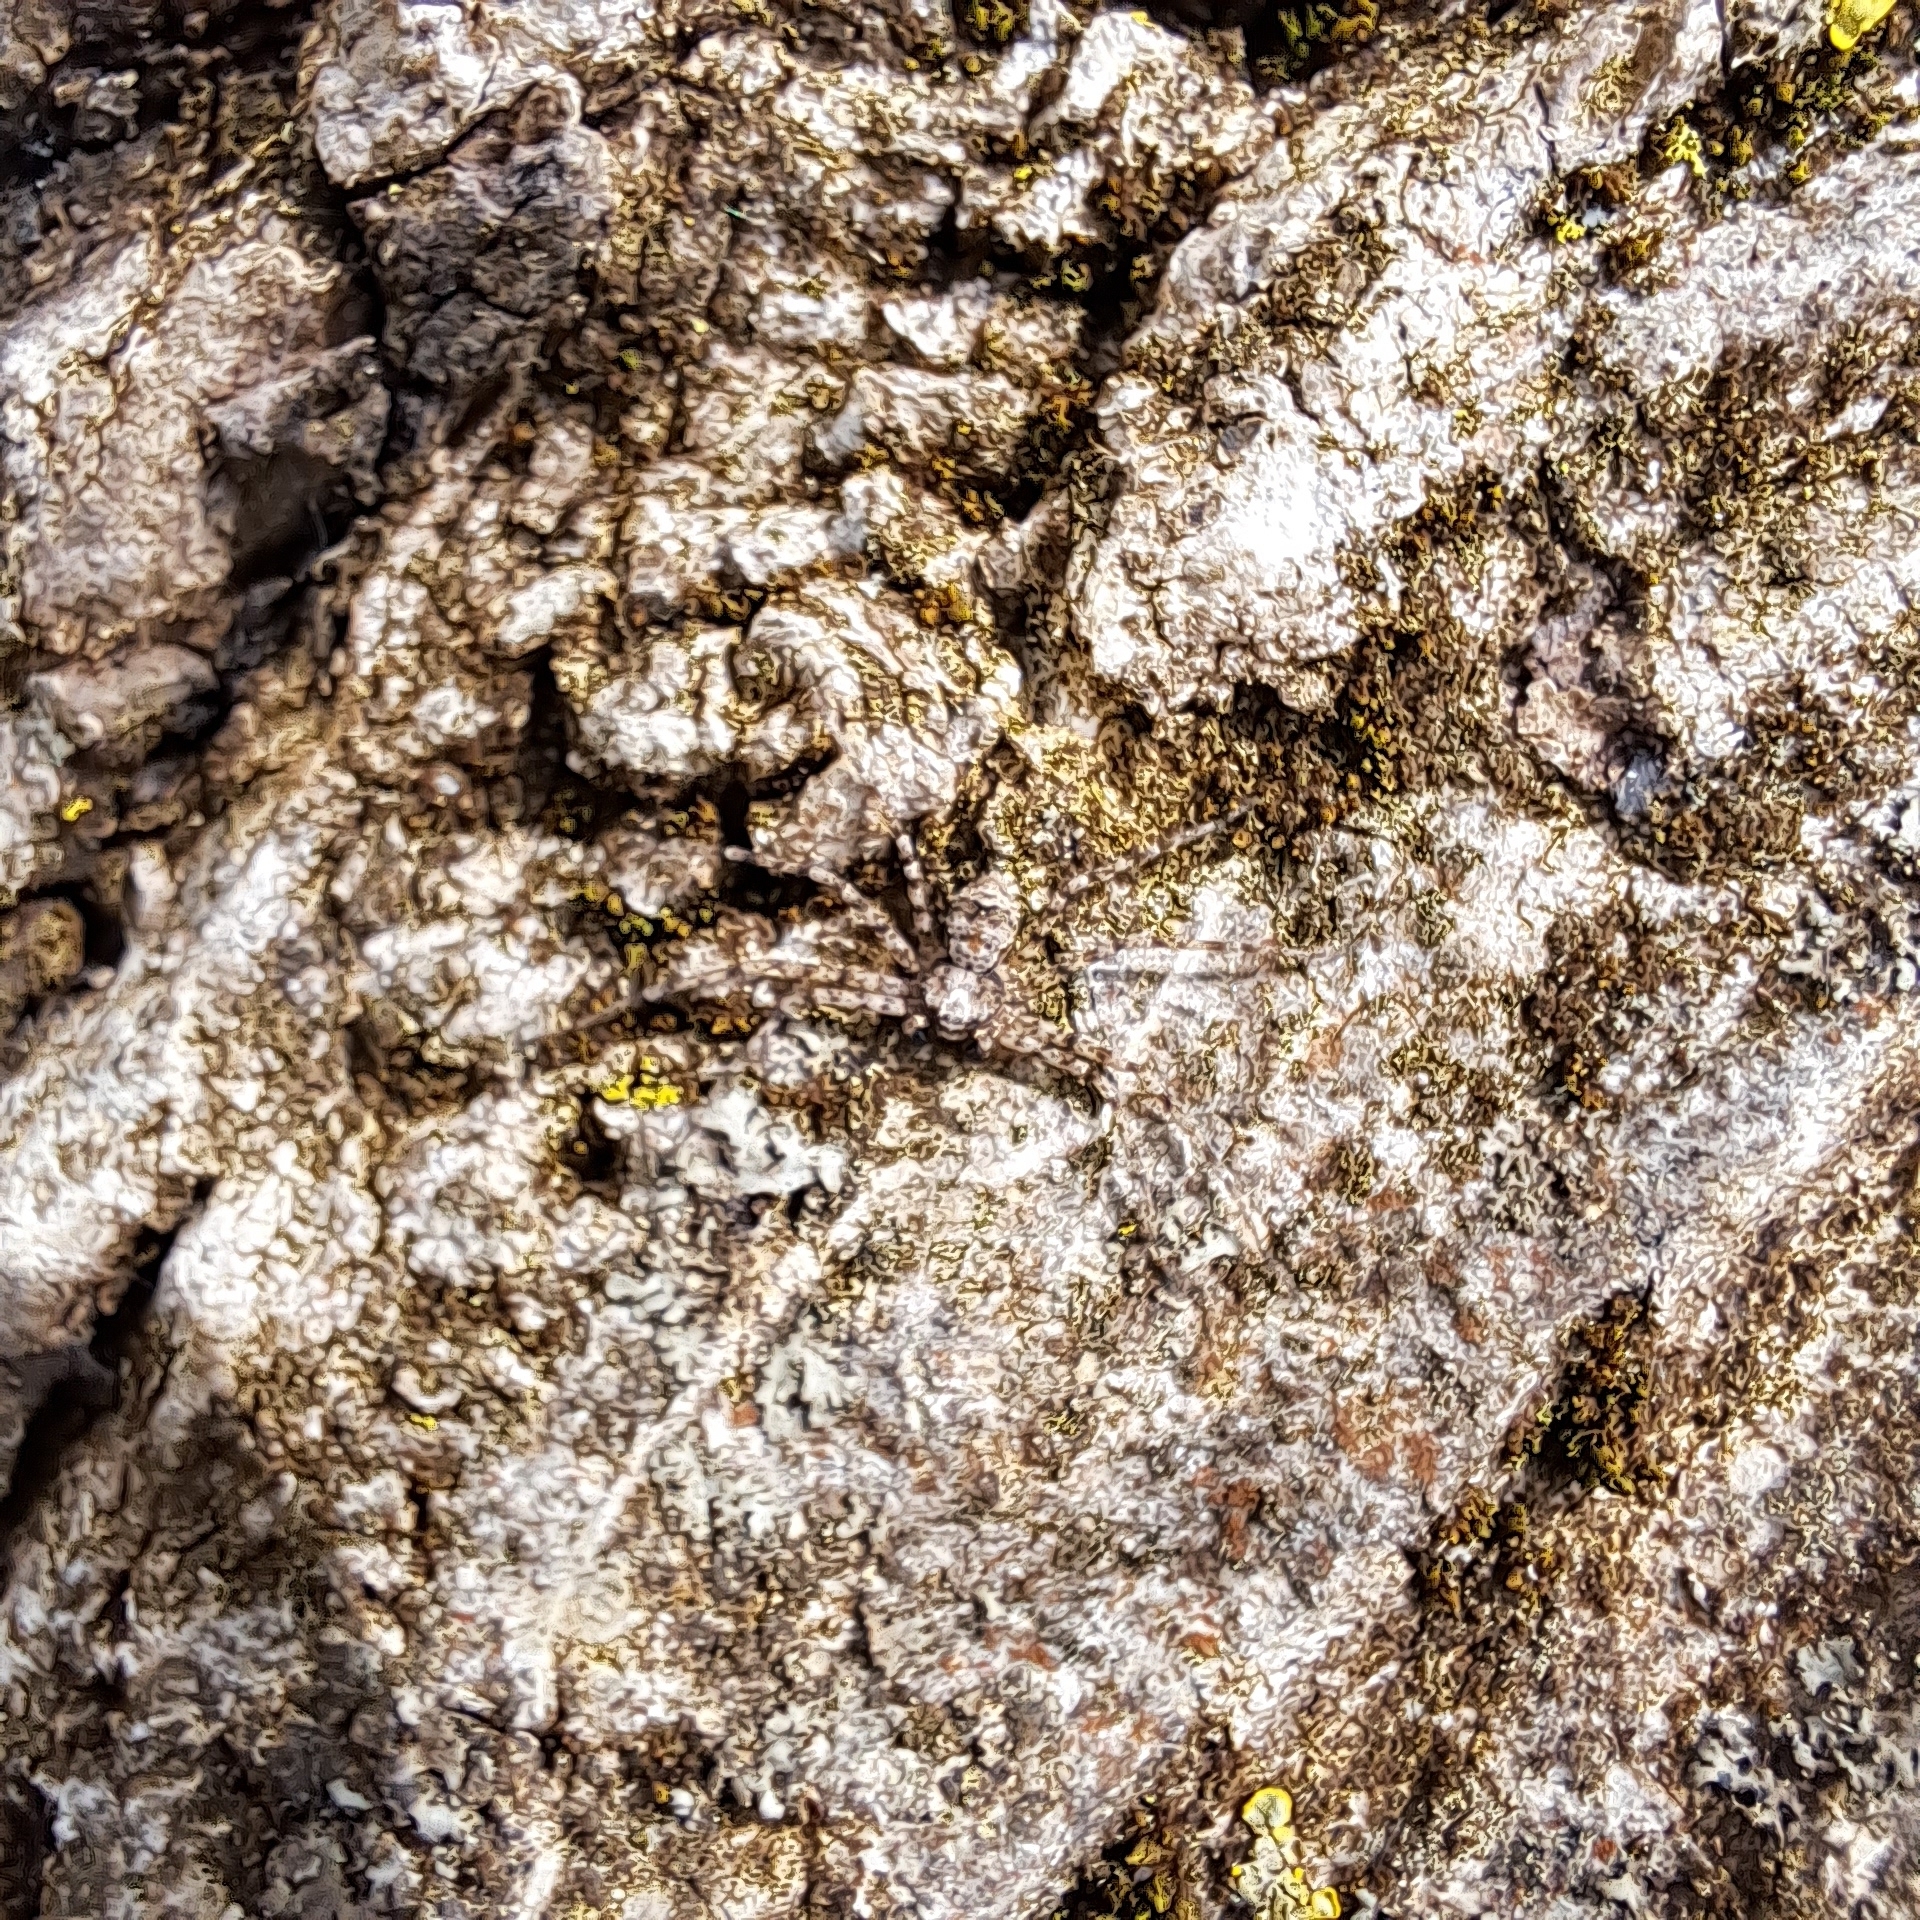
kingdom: Animalia
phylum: Arthropoda
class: Arachnida
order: Araneae
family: Philodromidae
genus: Philodromus
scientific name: Philodromus poecilus
